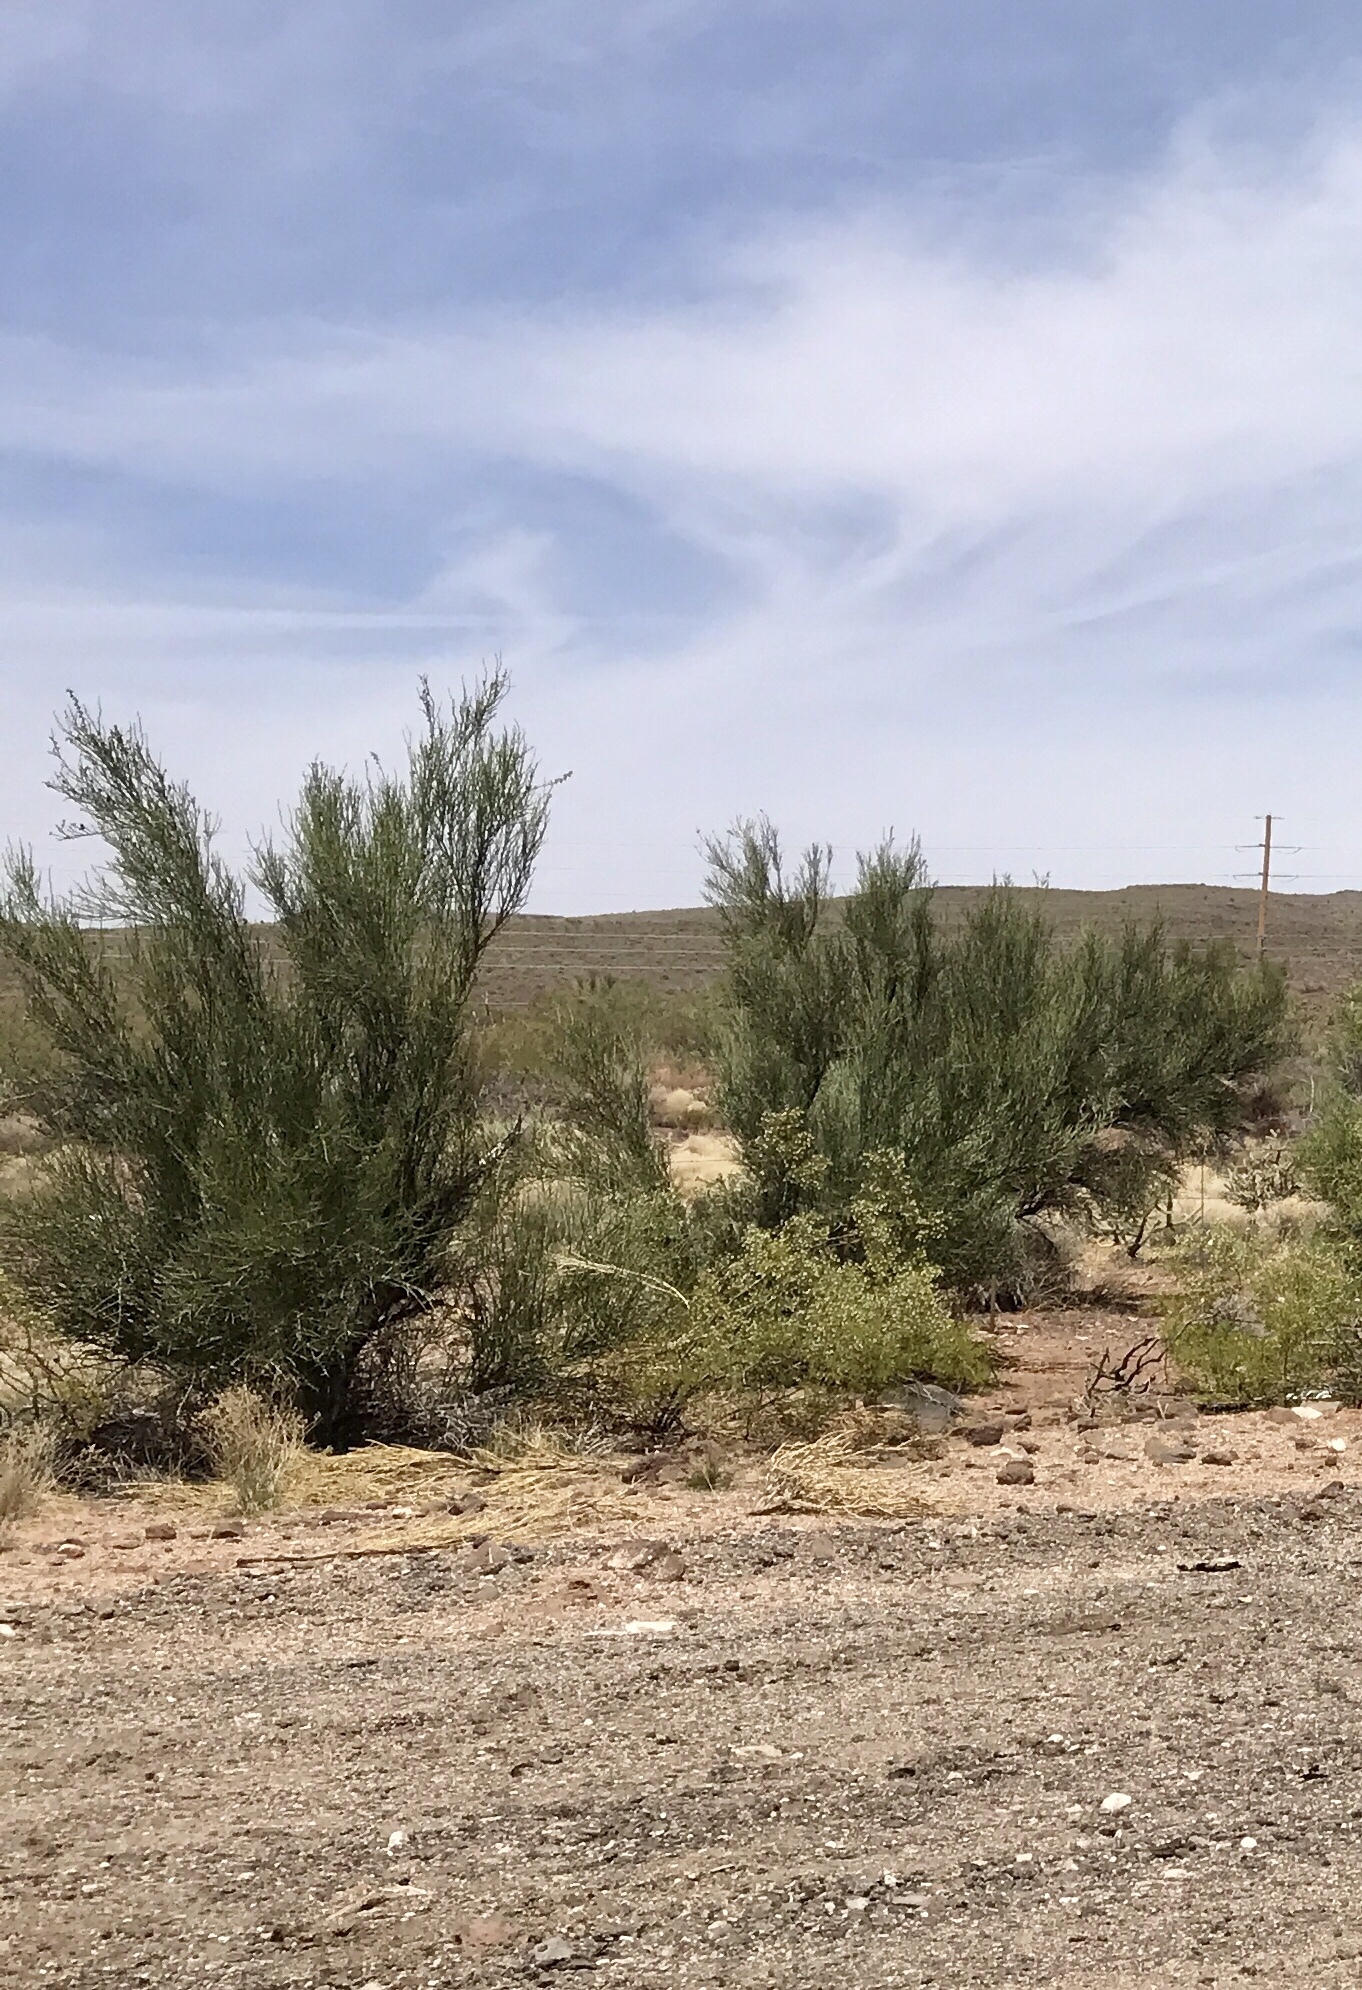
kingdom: Plantae
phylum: Tracheophyta
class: Magnoliopsida
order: Celastrales
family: Celastraceae
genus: Canotia
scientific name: Canotia holacantha
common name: Crucifixion thorns
